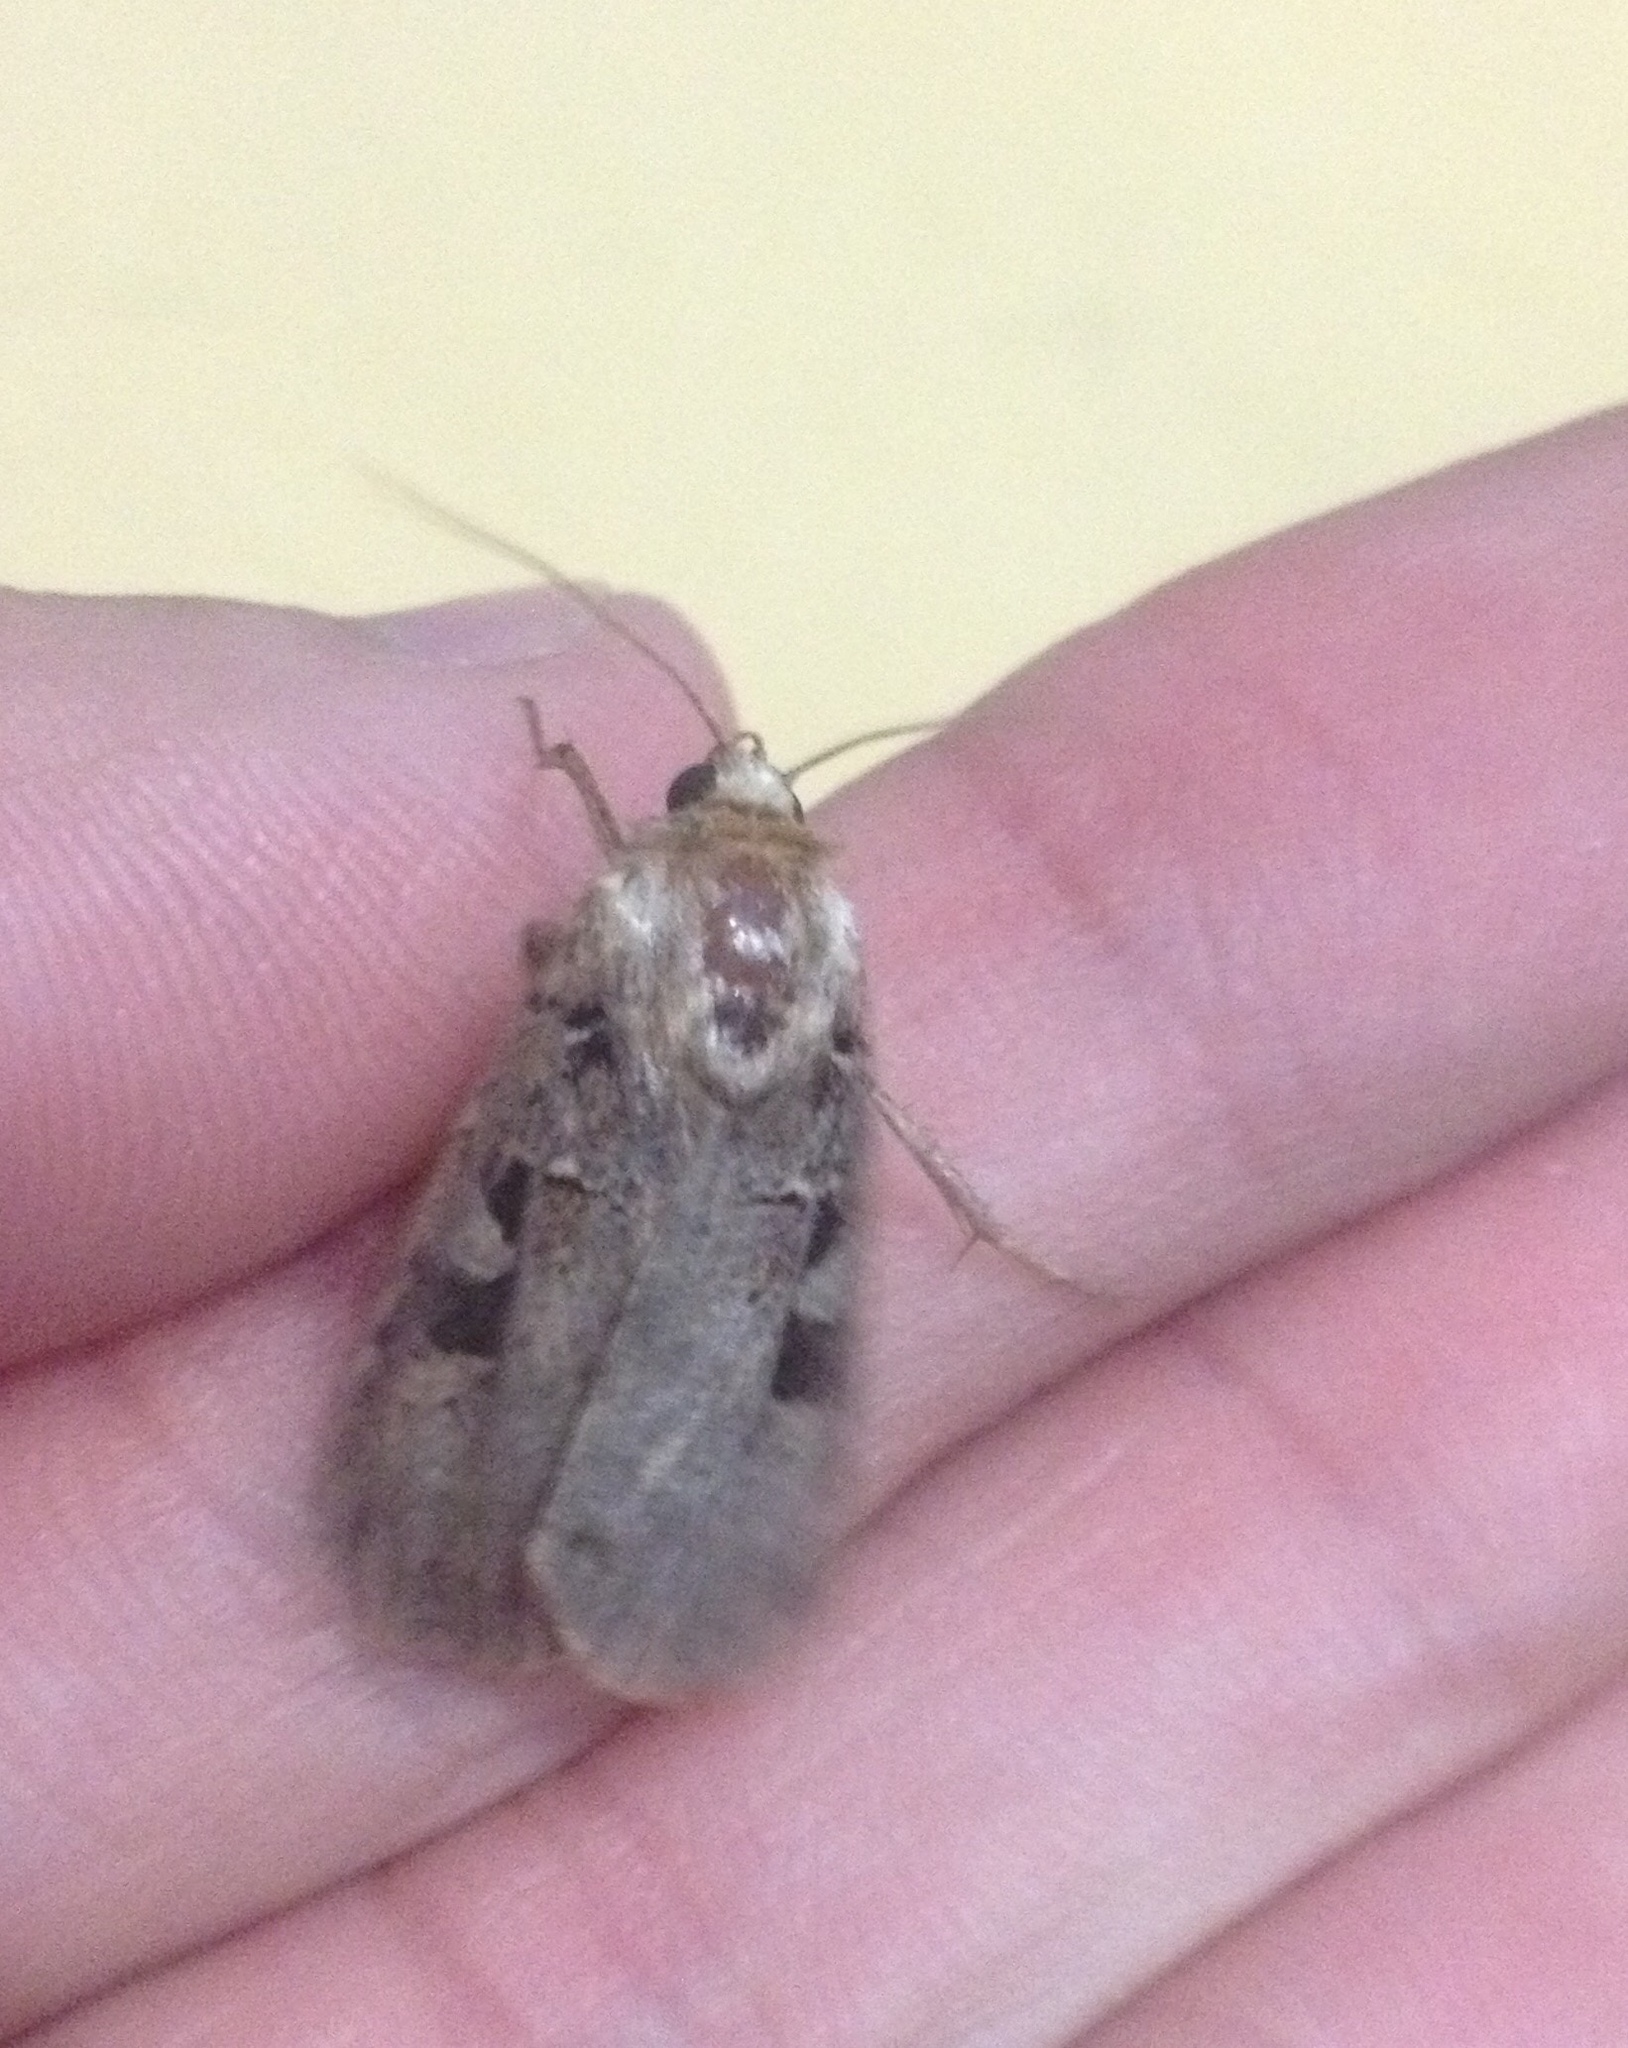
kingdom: Animalia
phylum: Arthropoda
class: Insecta
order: Lepidoptera
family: Noctuidae
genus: Xestia
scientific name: Xestia ditrapezium
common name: Triple-spotted clay
